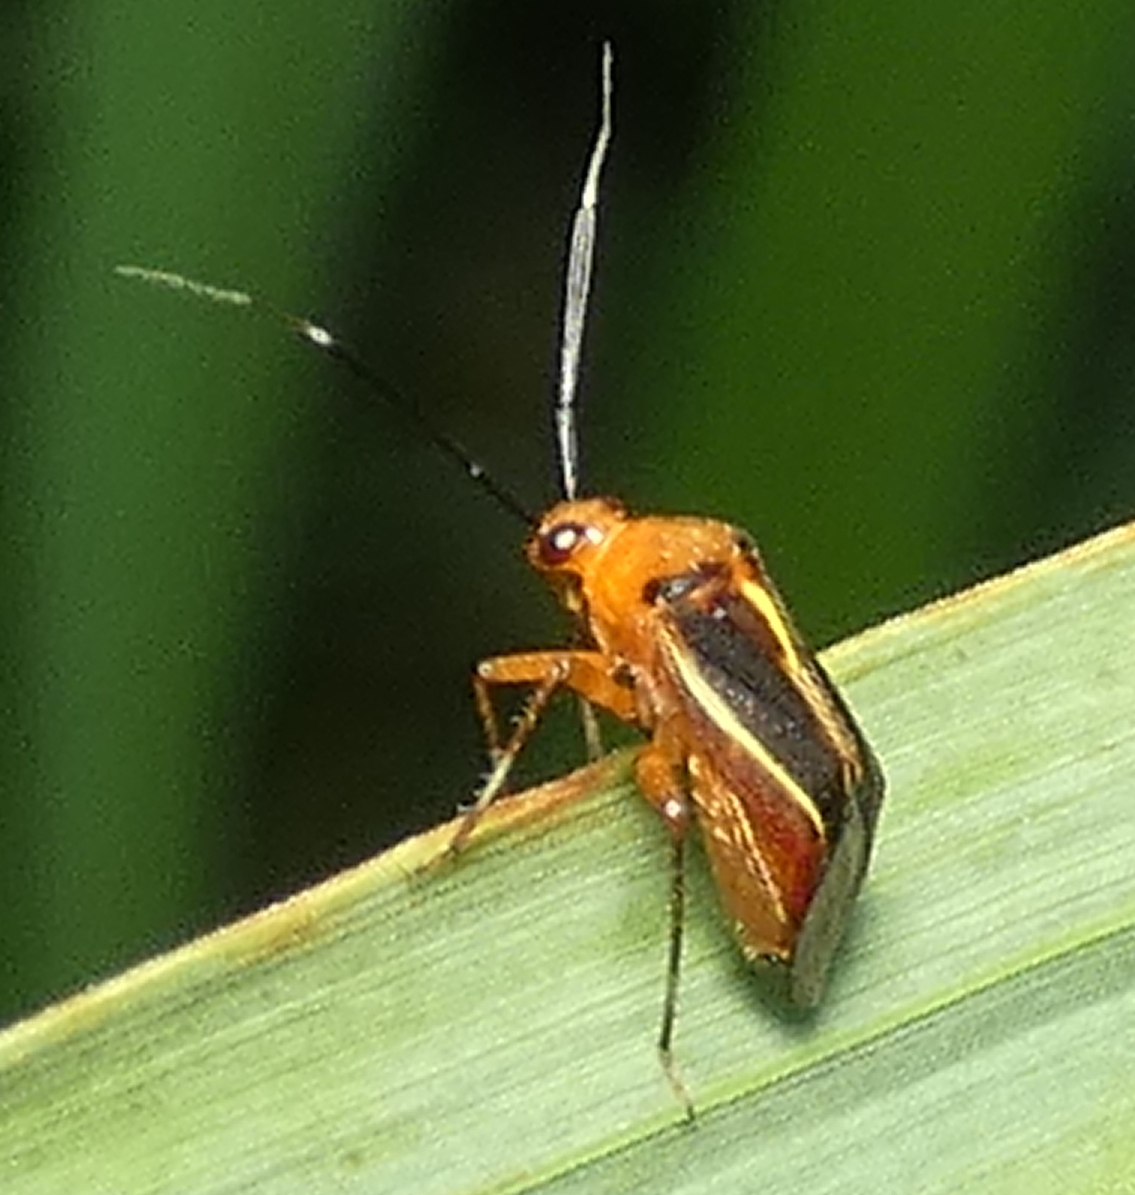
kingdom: Animalia
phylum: Arthropoda
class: Insecta
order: Hemiptera
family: Miridae
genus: Horciasinus
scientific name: Horciasinus signoreti
